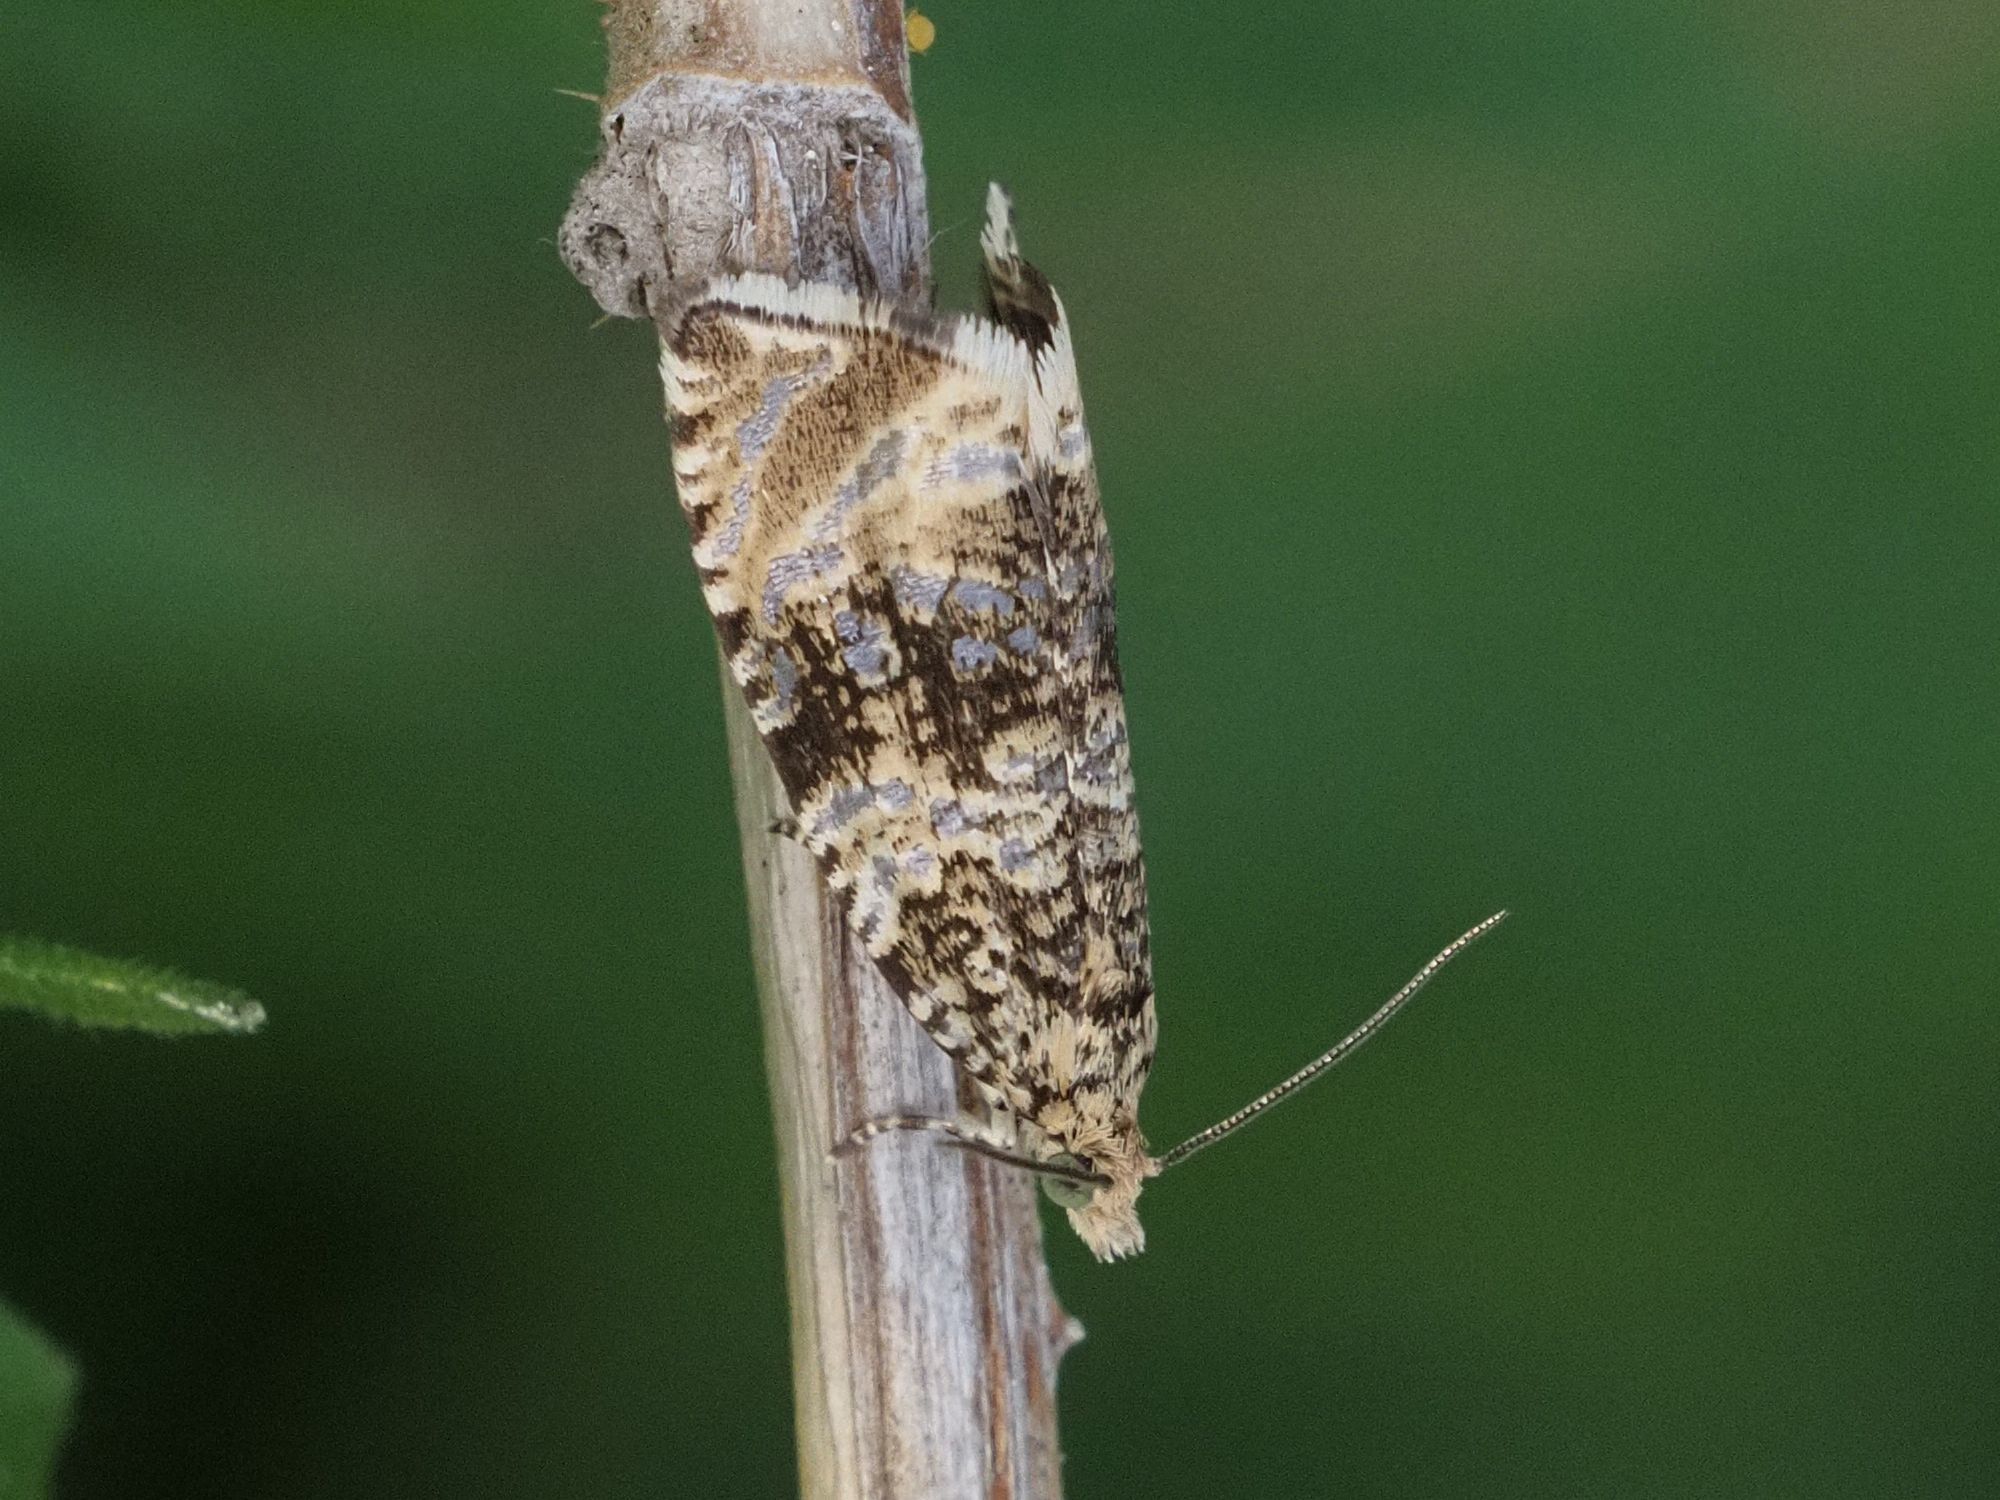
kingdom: Animalia
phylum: Arthropoda
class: Insecta
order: Lepidoptera
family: Tortricidae
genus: Syricoris
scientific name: Syricoris lacunana
